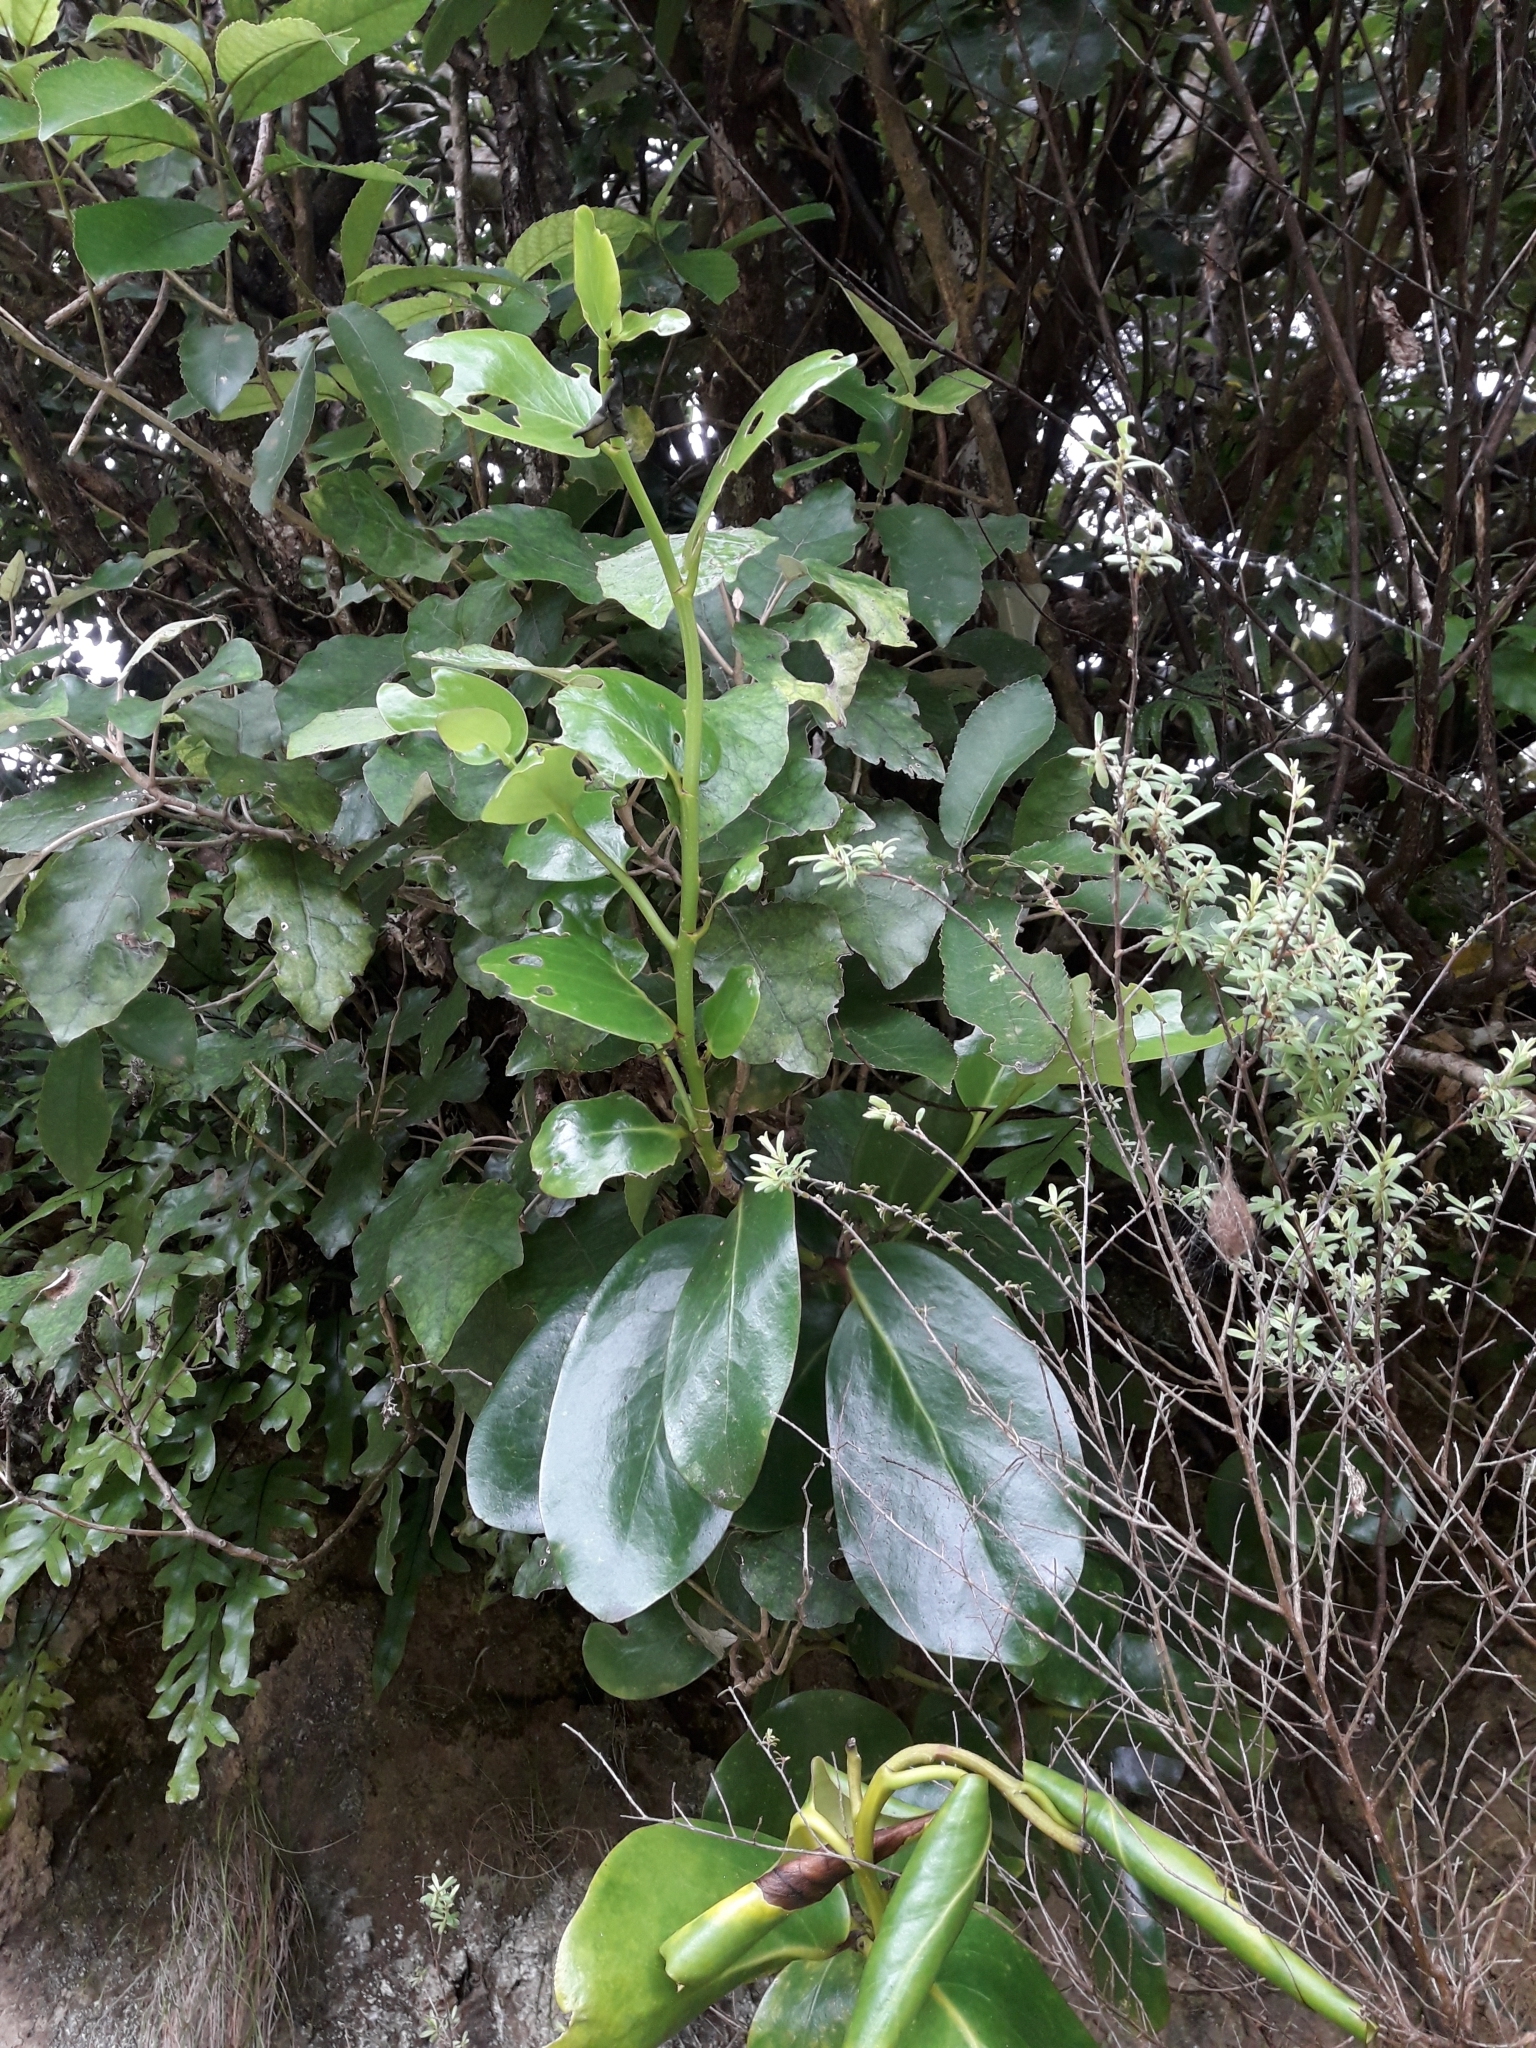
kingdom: Plantae
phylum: Tracheophyta
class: Magnoliopsida
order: Apiales
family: Griseliniaceae
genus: Griselinia
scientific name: Griselinia lucida
